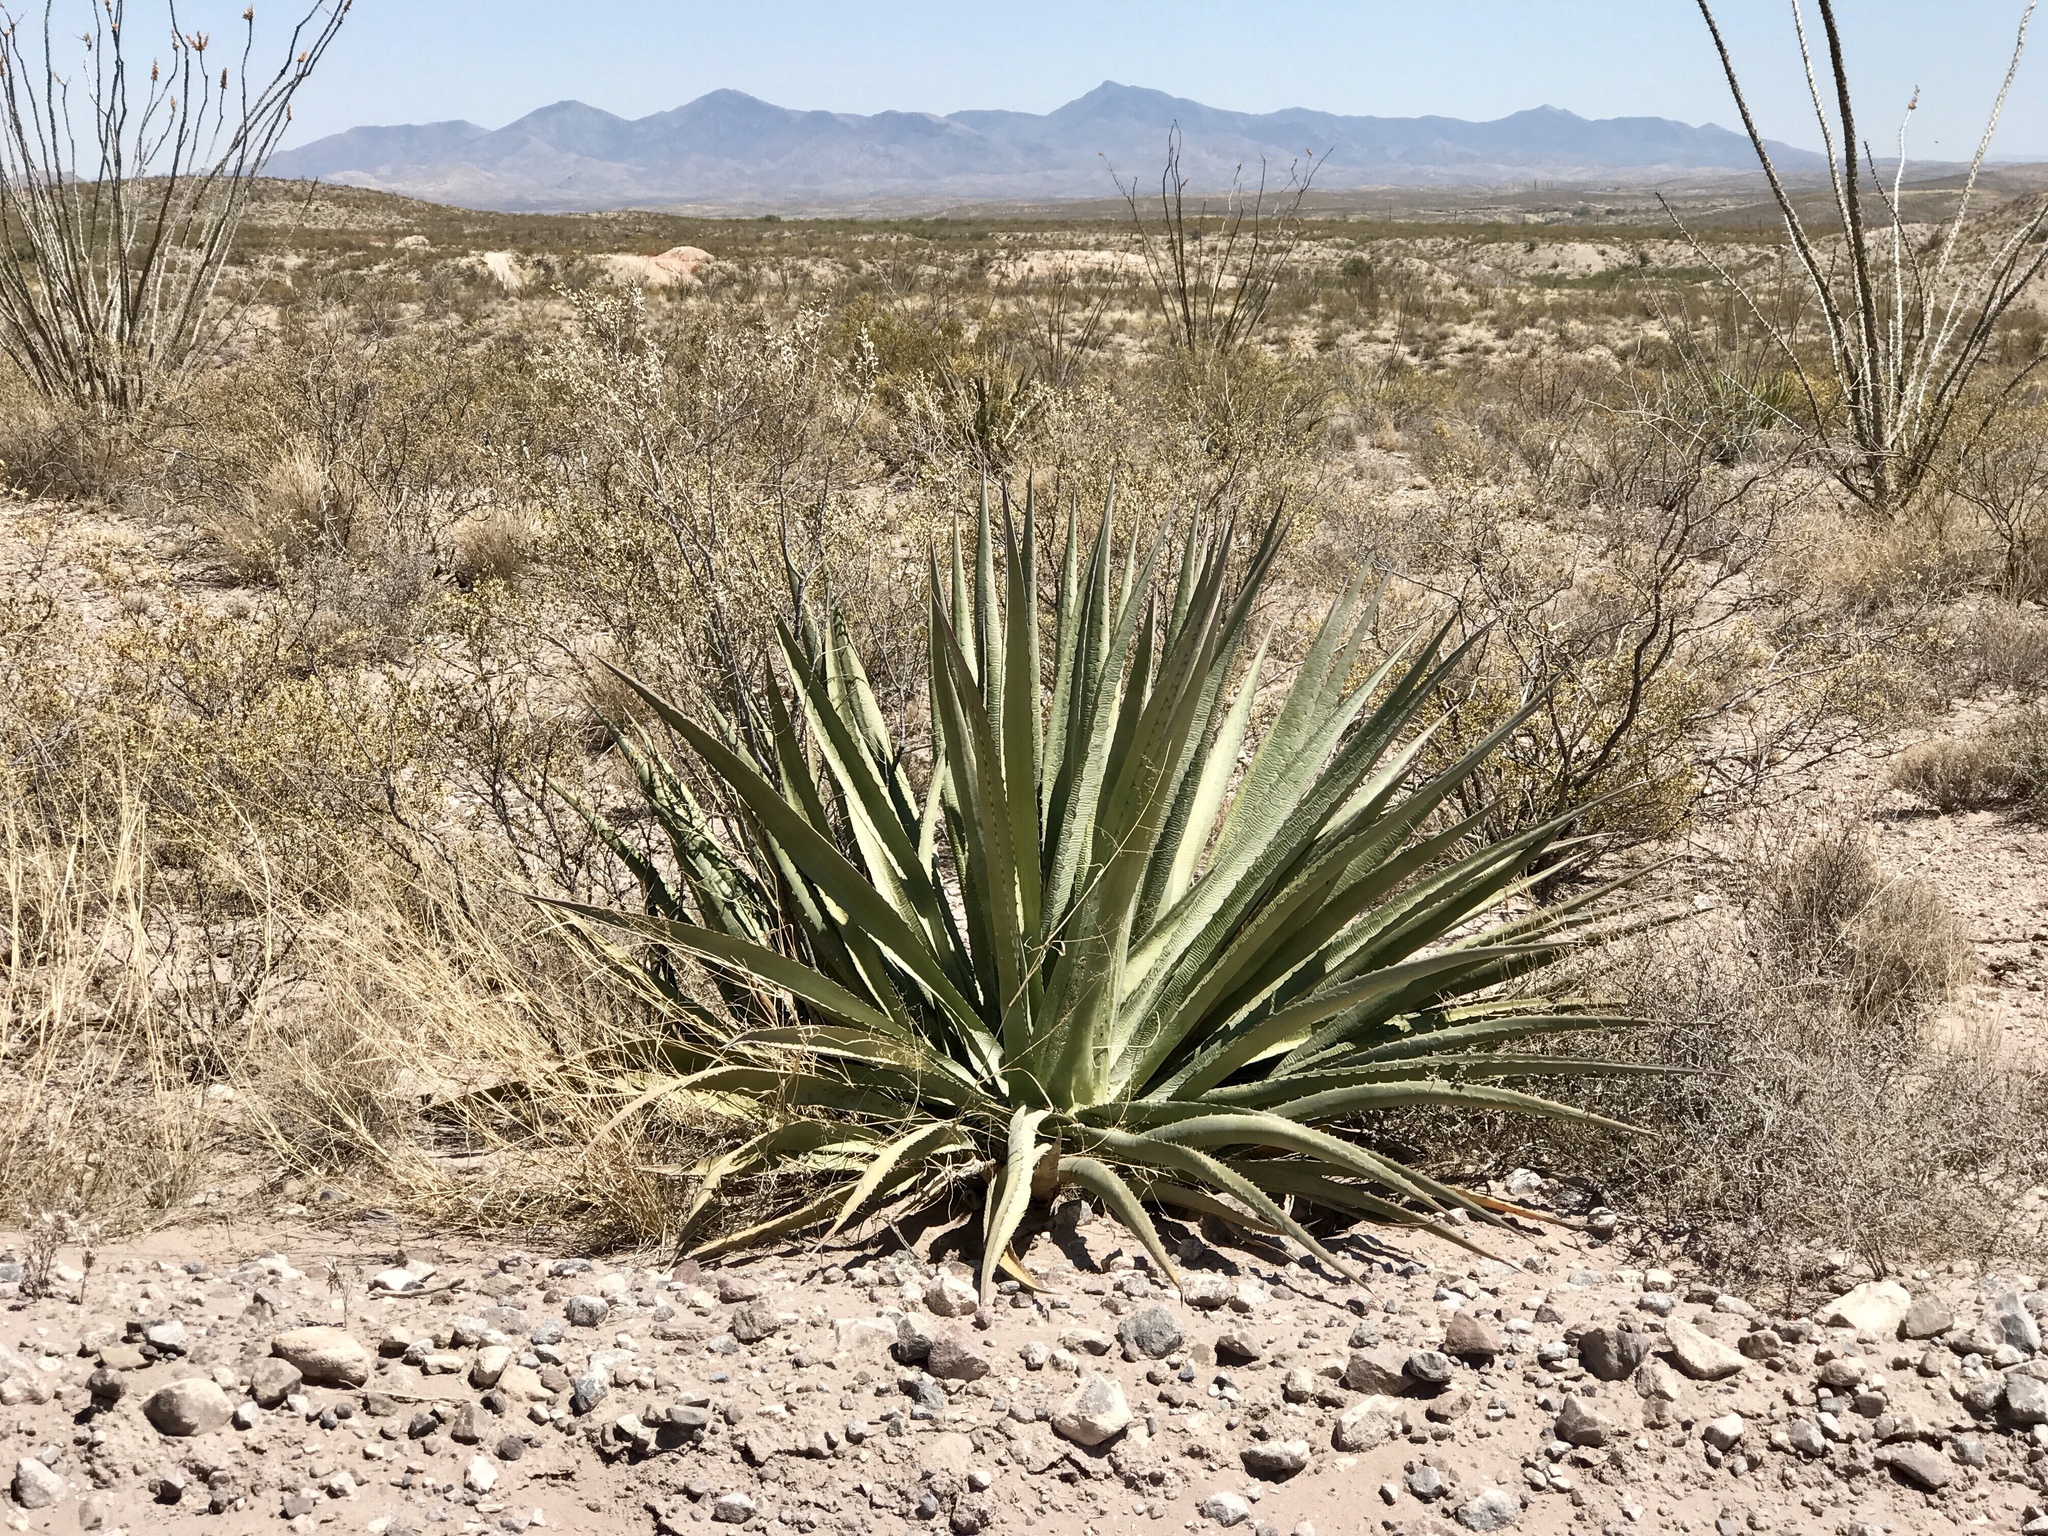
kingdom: Plantae
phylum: Tracheophyta
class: Liliopsida
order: Asparagales
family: Asparagaceae
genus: Agave
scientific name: Agave palmeri
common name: Palmer agave
